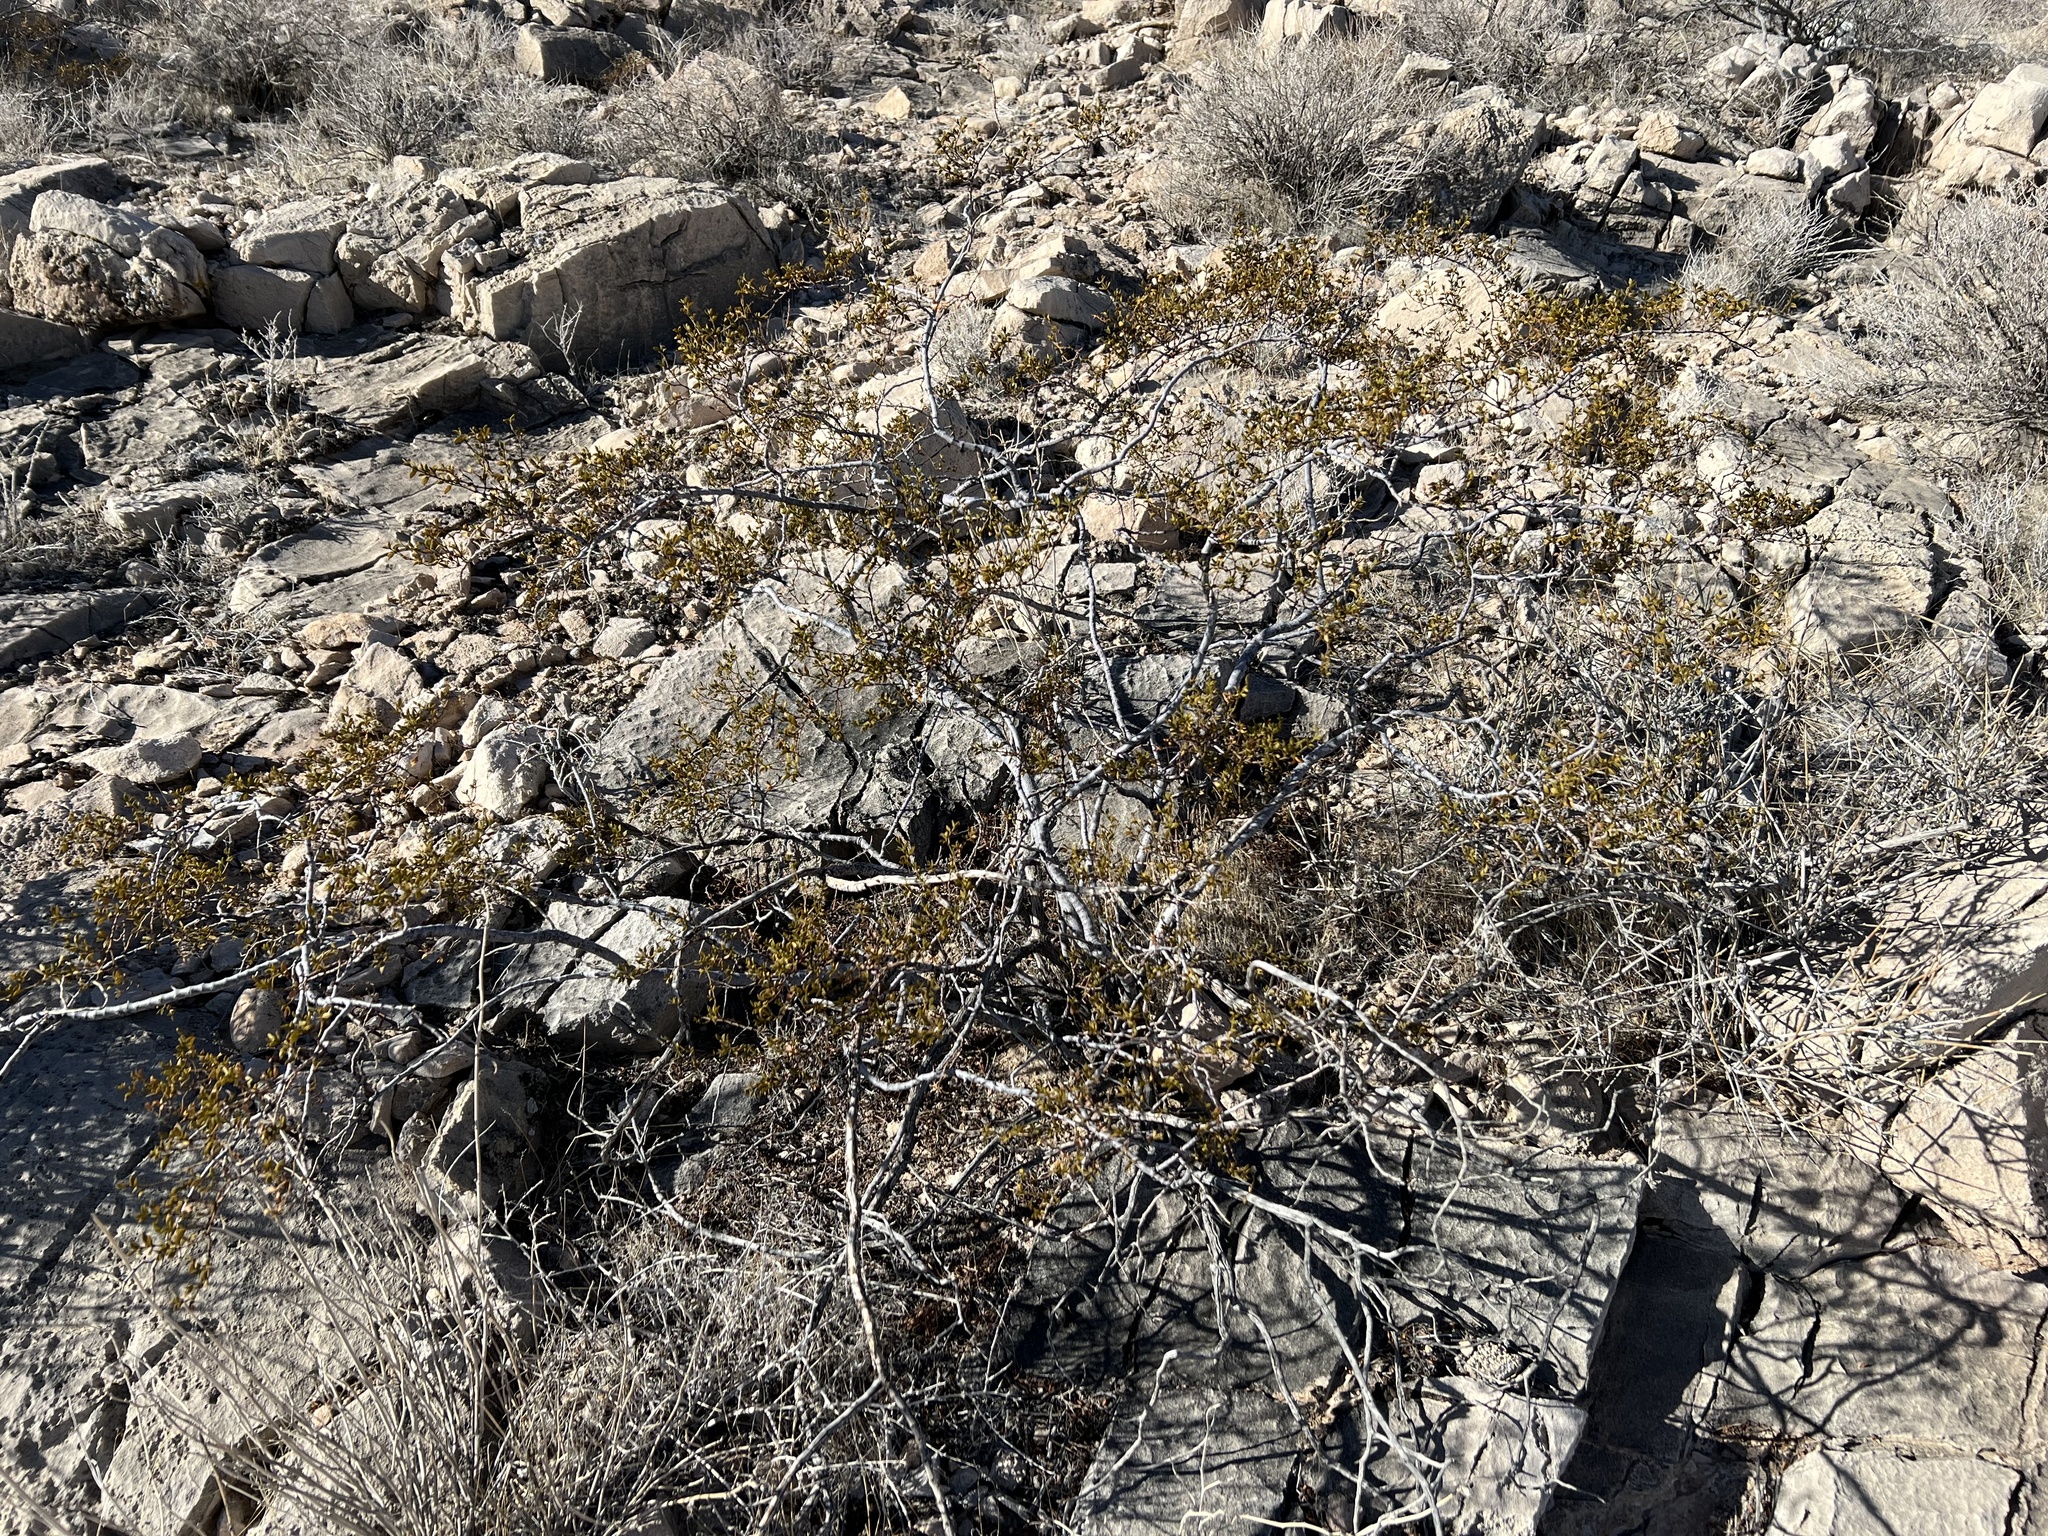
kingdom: Plantae
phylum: Tracheophyta
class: Magnoliopsida
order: Zygophyllales
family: Zygophyllaceae
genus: Larrea
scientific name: Larrea tridentata
